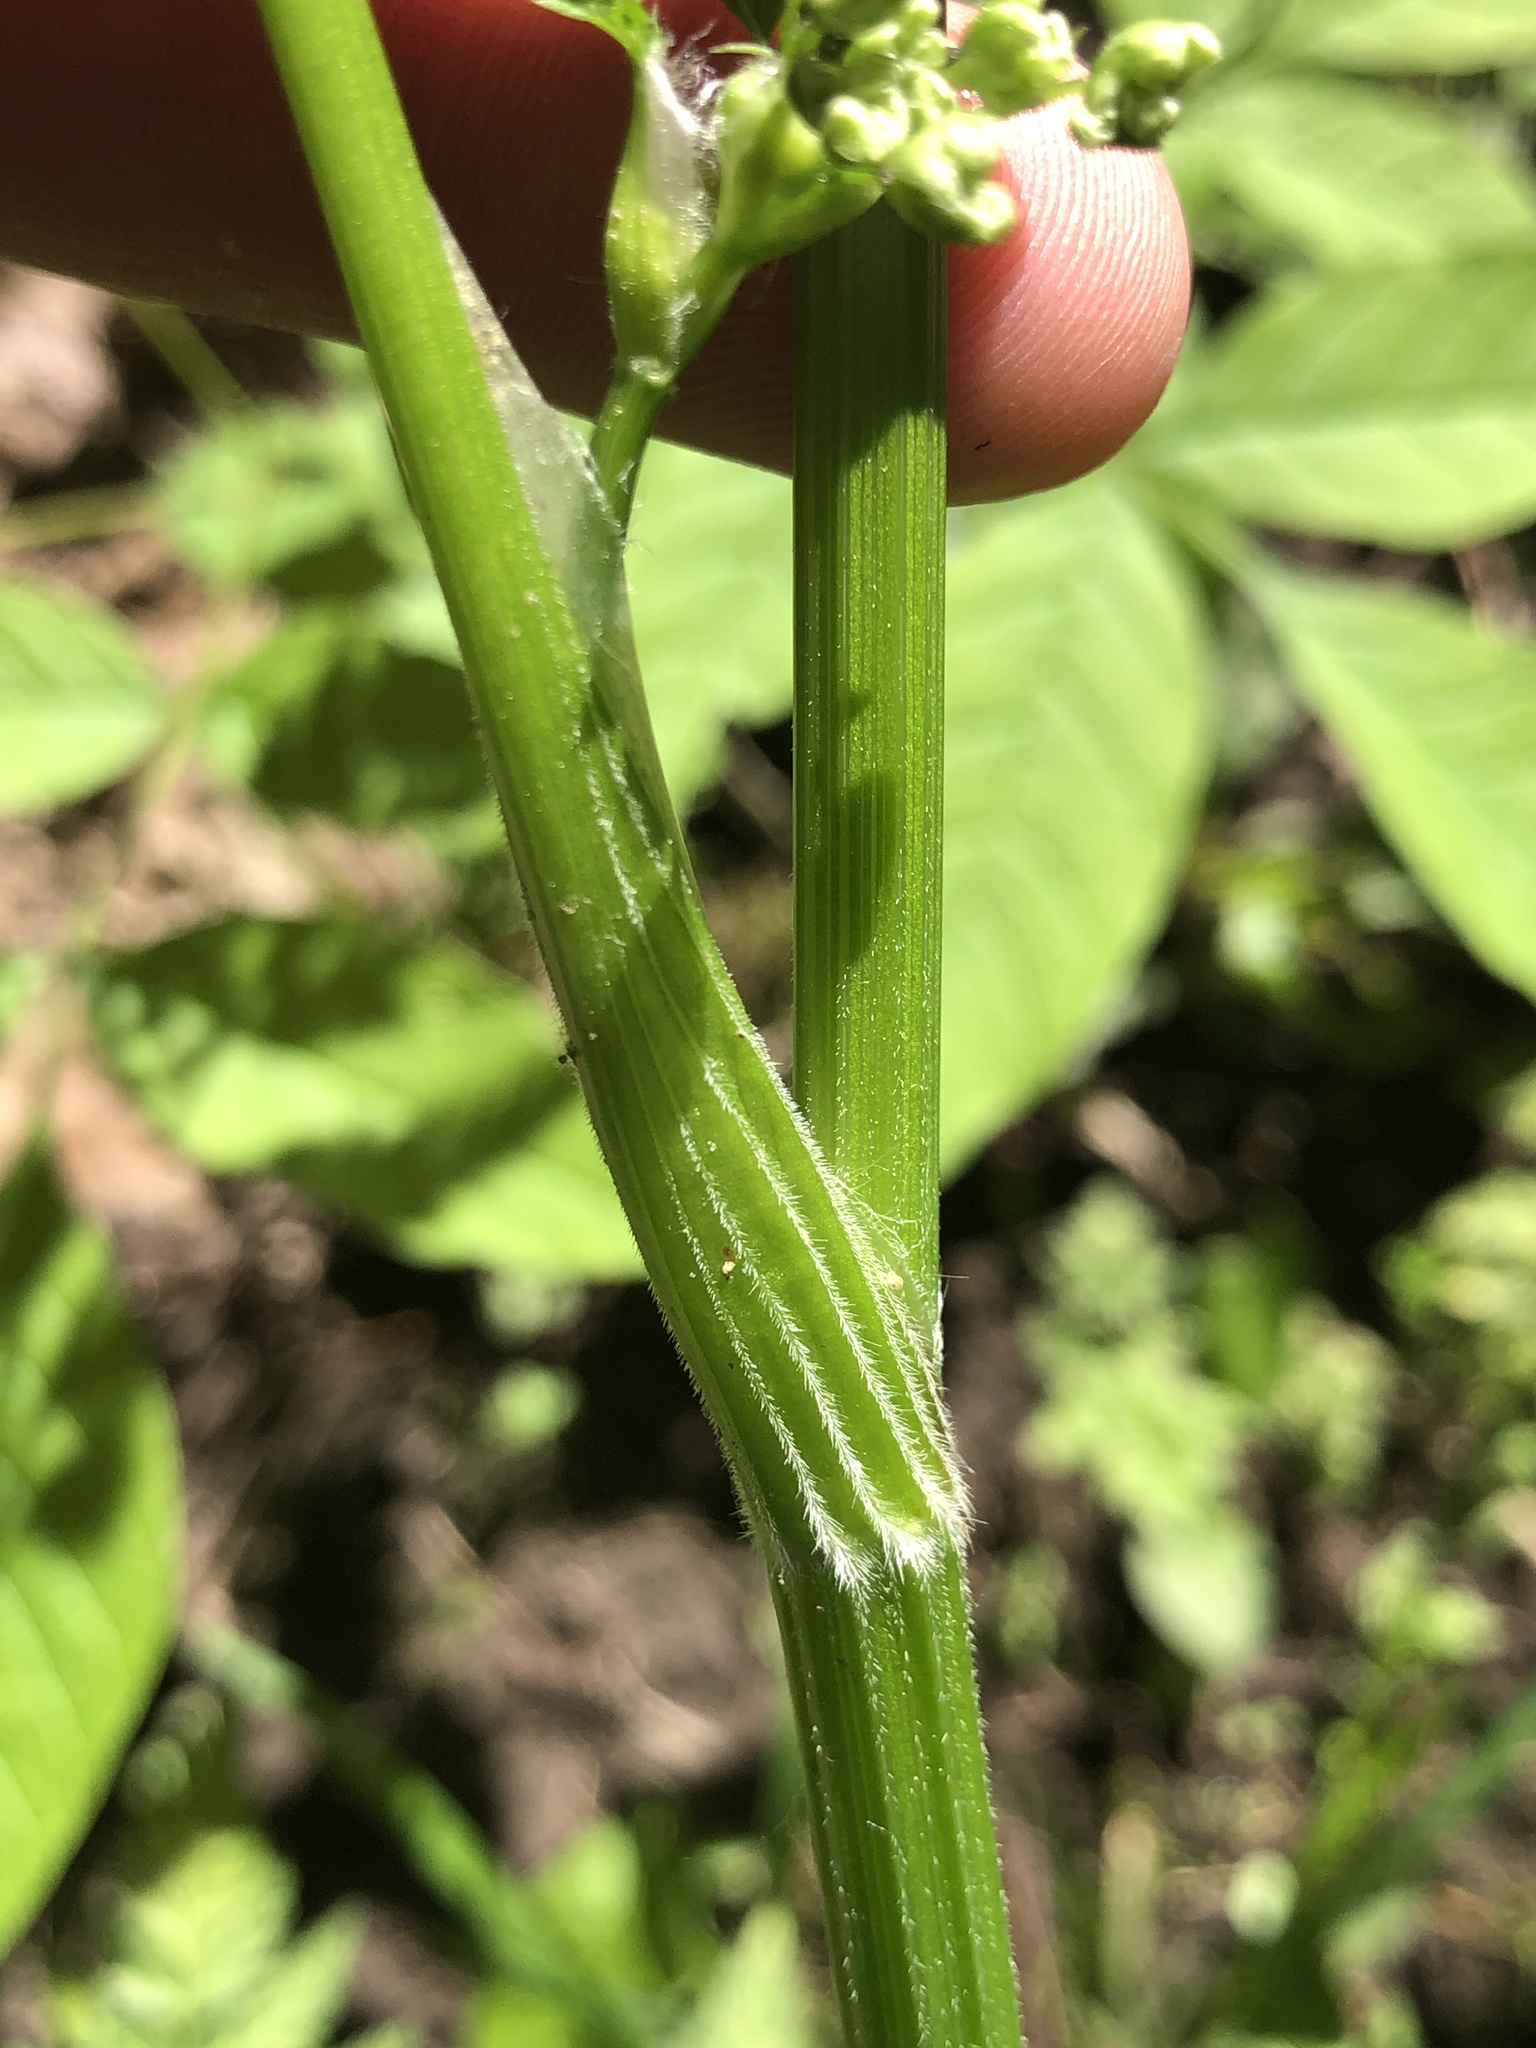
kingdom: Plantae
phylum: Tracheophyta
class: Magnoliopsida
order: Apiales
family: Apiaceae
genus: Anthriscus
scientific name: Anthriscus sylvestris
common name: Cow parsley
